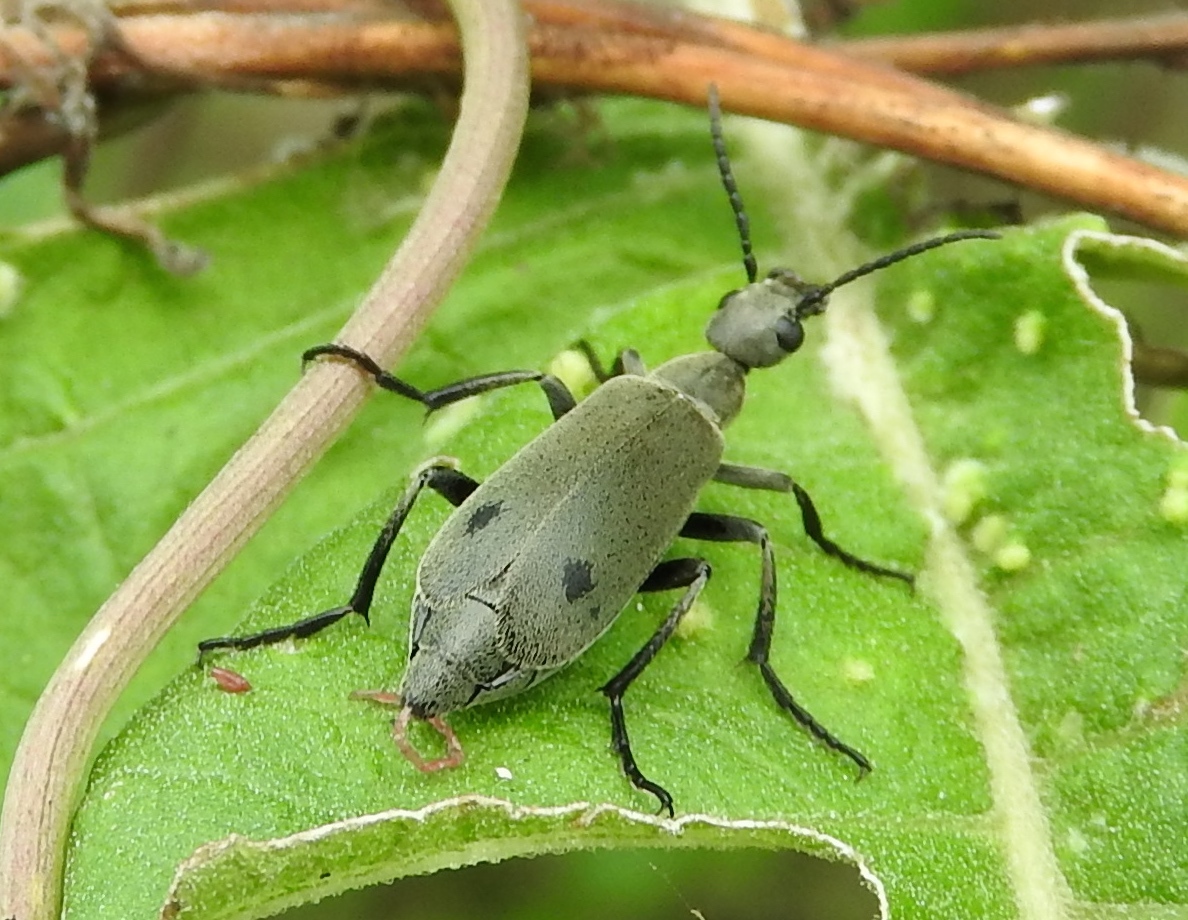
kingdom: Animalia
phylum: Arthropoda
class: Insecta
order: Coleoptera
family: Meloidae
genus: Epicauta
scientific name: Epicauta bipunctata
